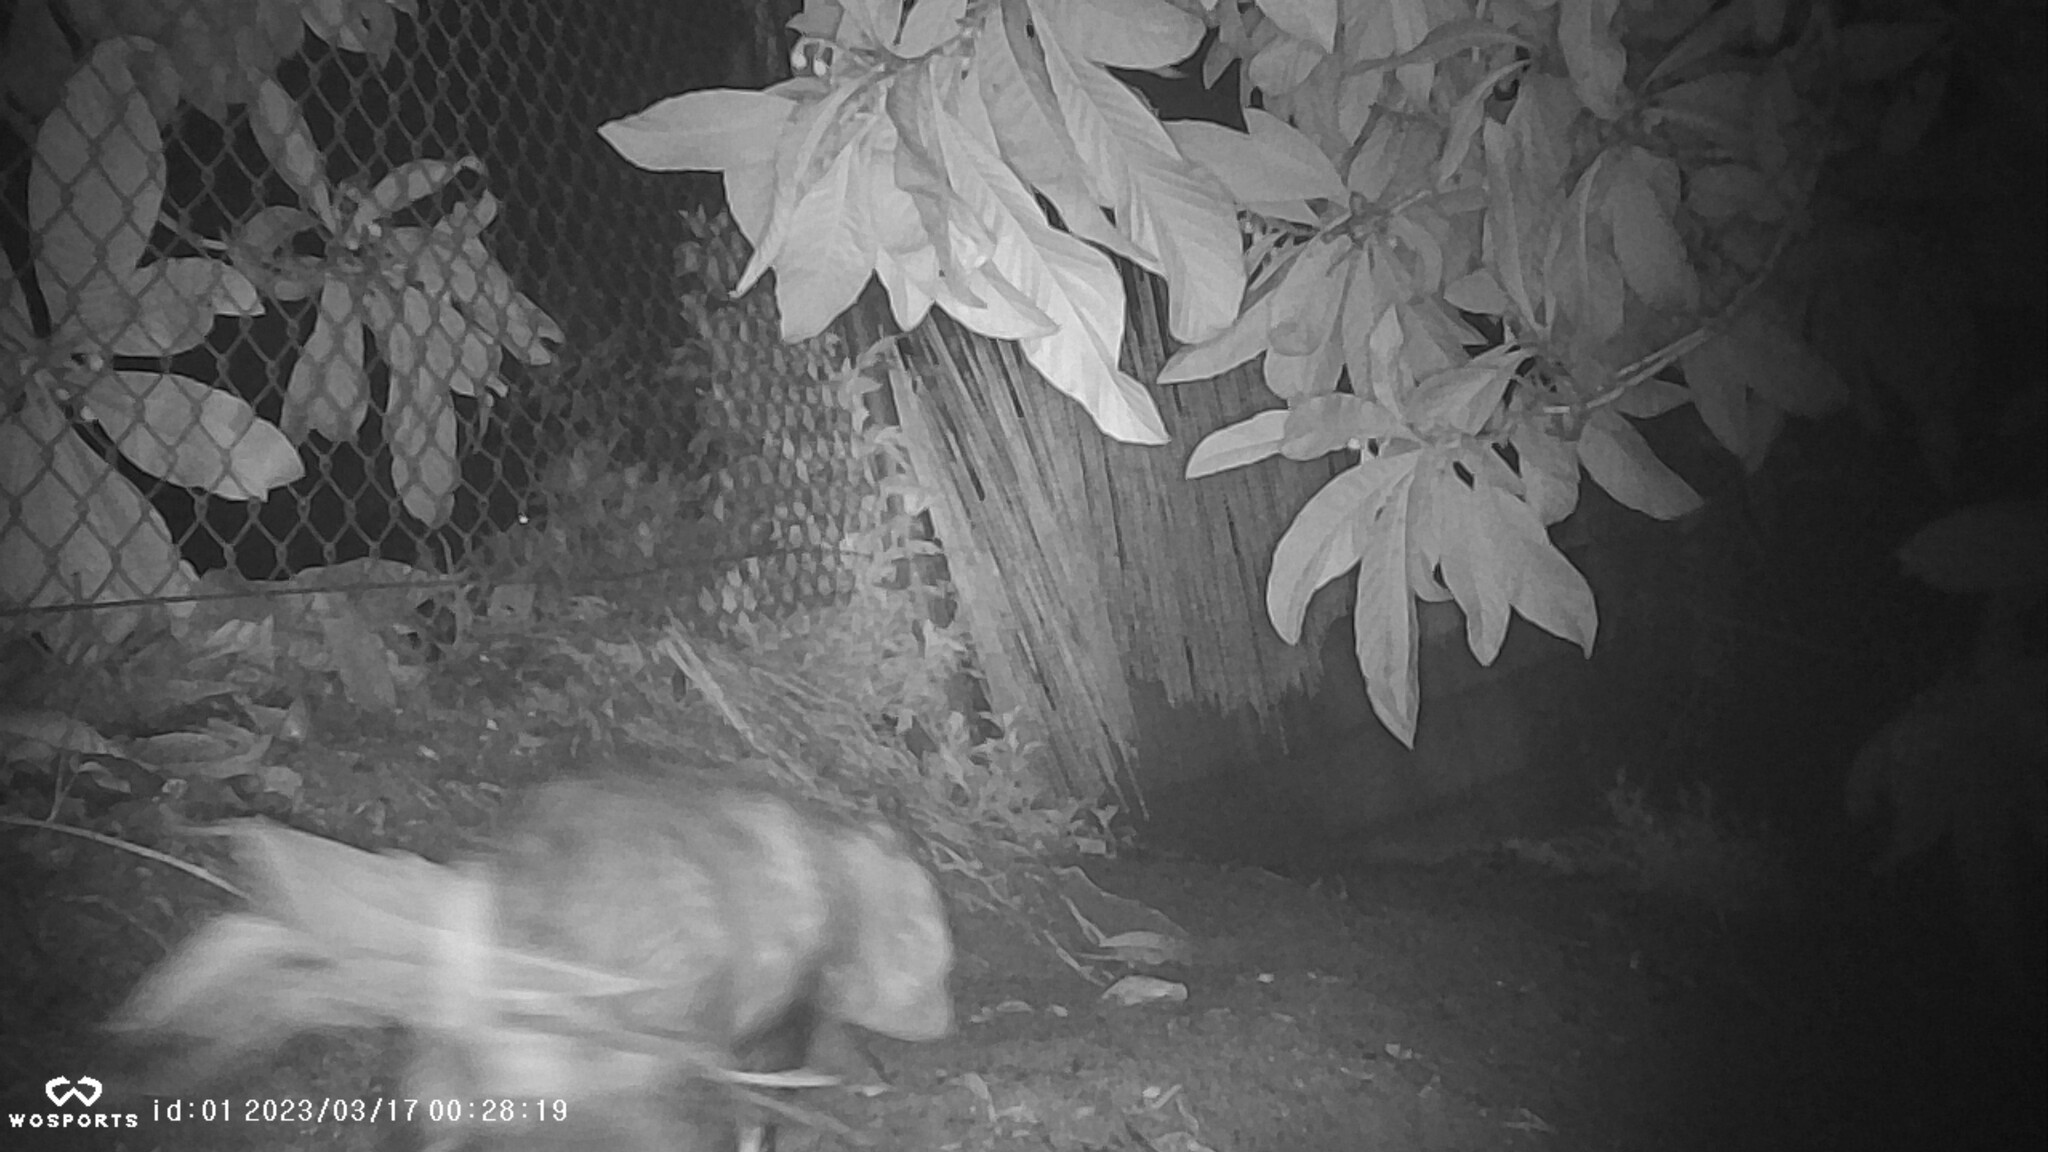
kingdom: Animalia
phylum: Chordata
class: Mammalia
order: Didelphimorphia
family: Didelphidae
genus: Didelphis
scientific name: Didelphis virginiana
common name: Virginia opossum
